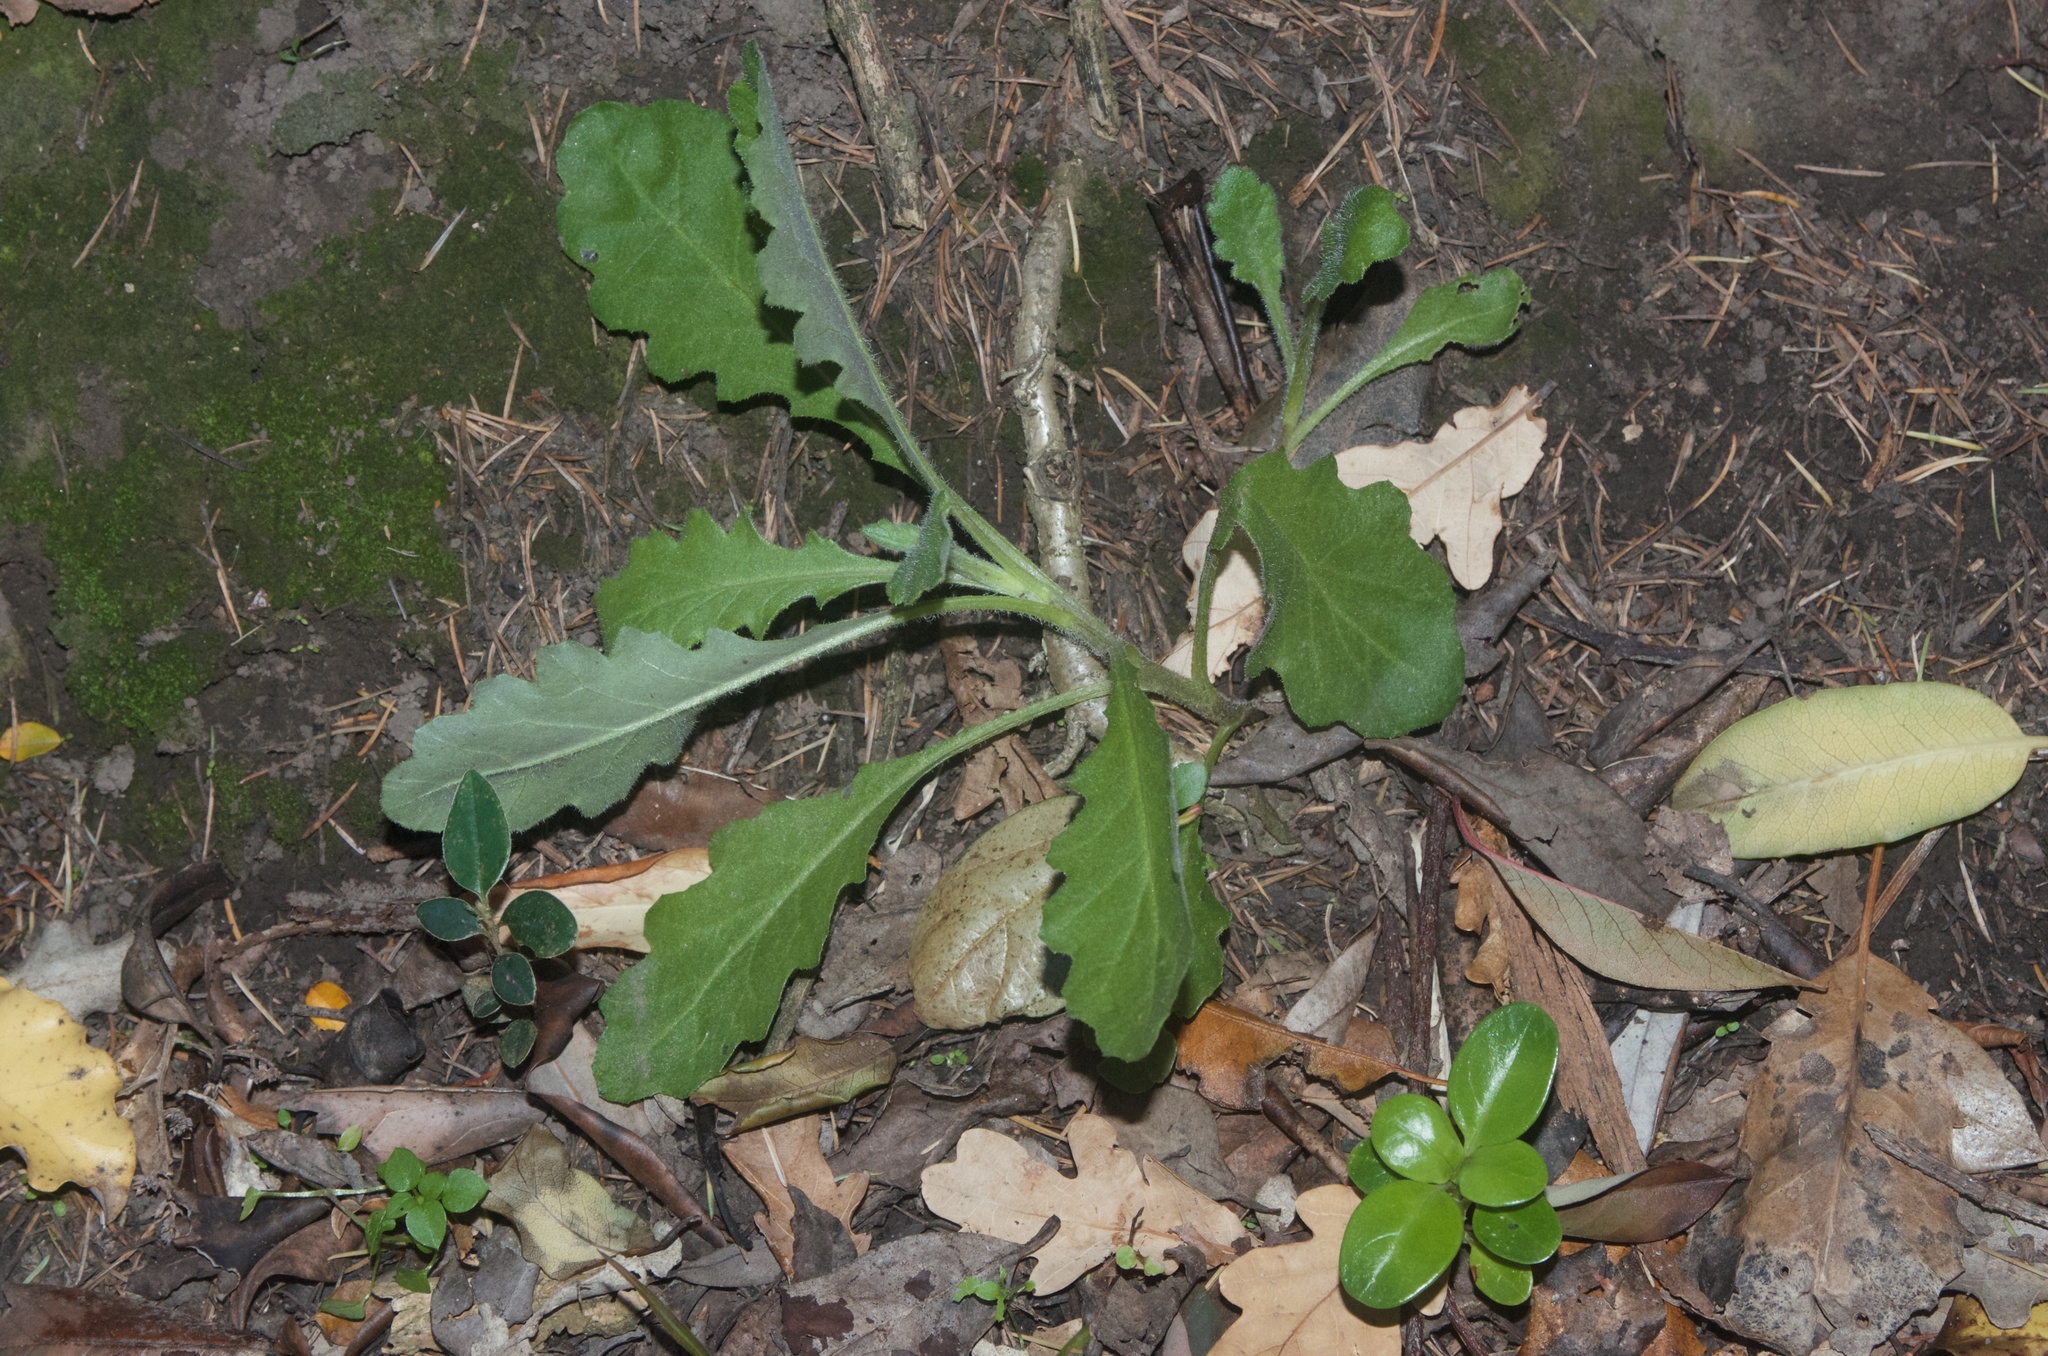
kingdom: Plantae
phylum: Tracheophyta
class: Magnoliopsida
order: Asterales
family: Asteraceae
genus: Senecio
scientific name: Senecio glomeratus
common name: Cutleaf burnweed
